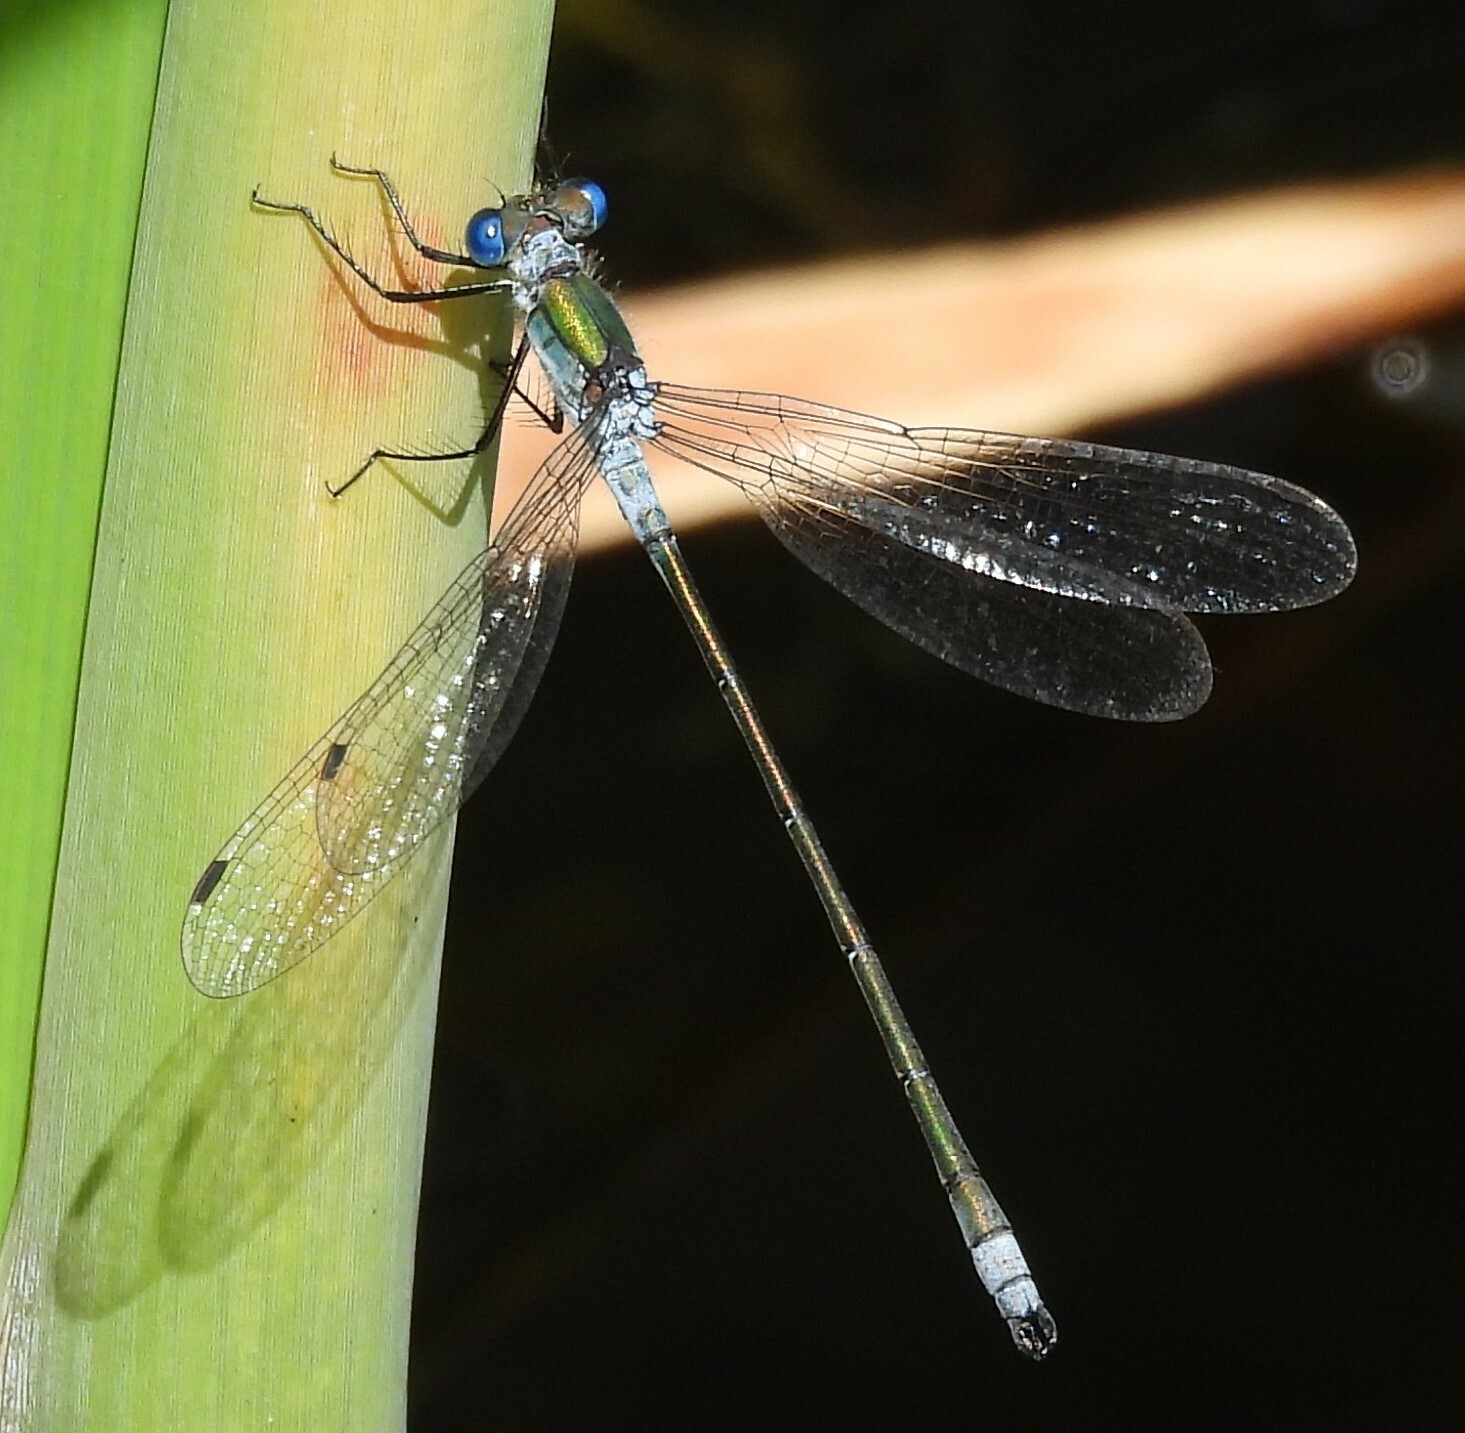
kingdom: Animalia
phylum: Arthropoda
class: Insecta
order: Odonata
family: Lestidae
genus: Lestes
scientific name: Lestes sponsa
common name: Common spreadwing
